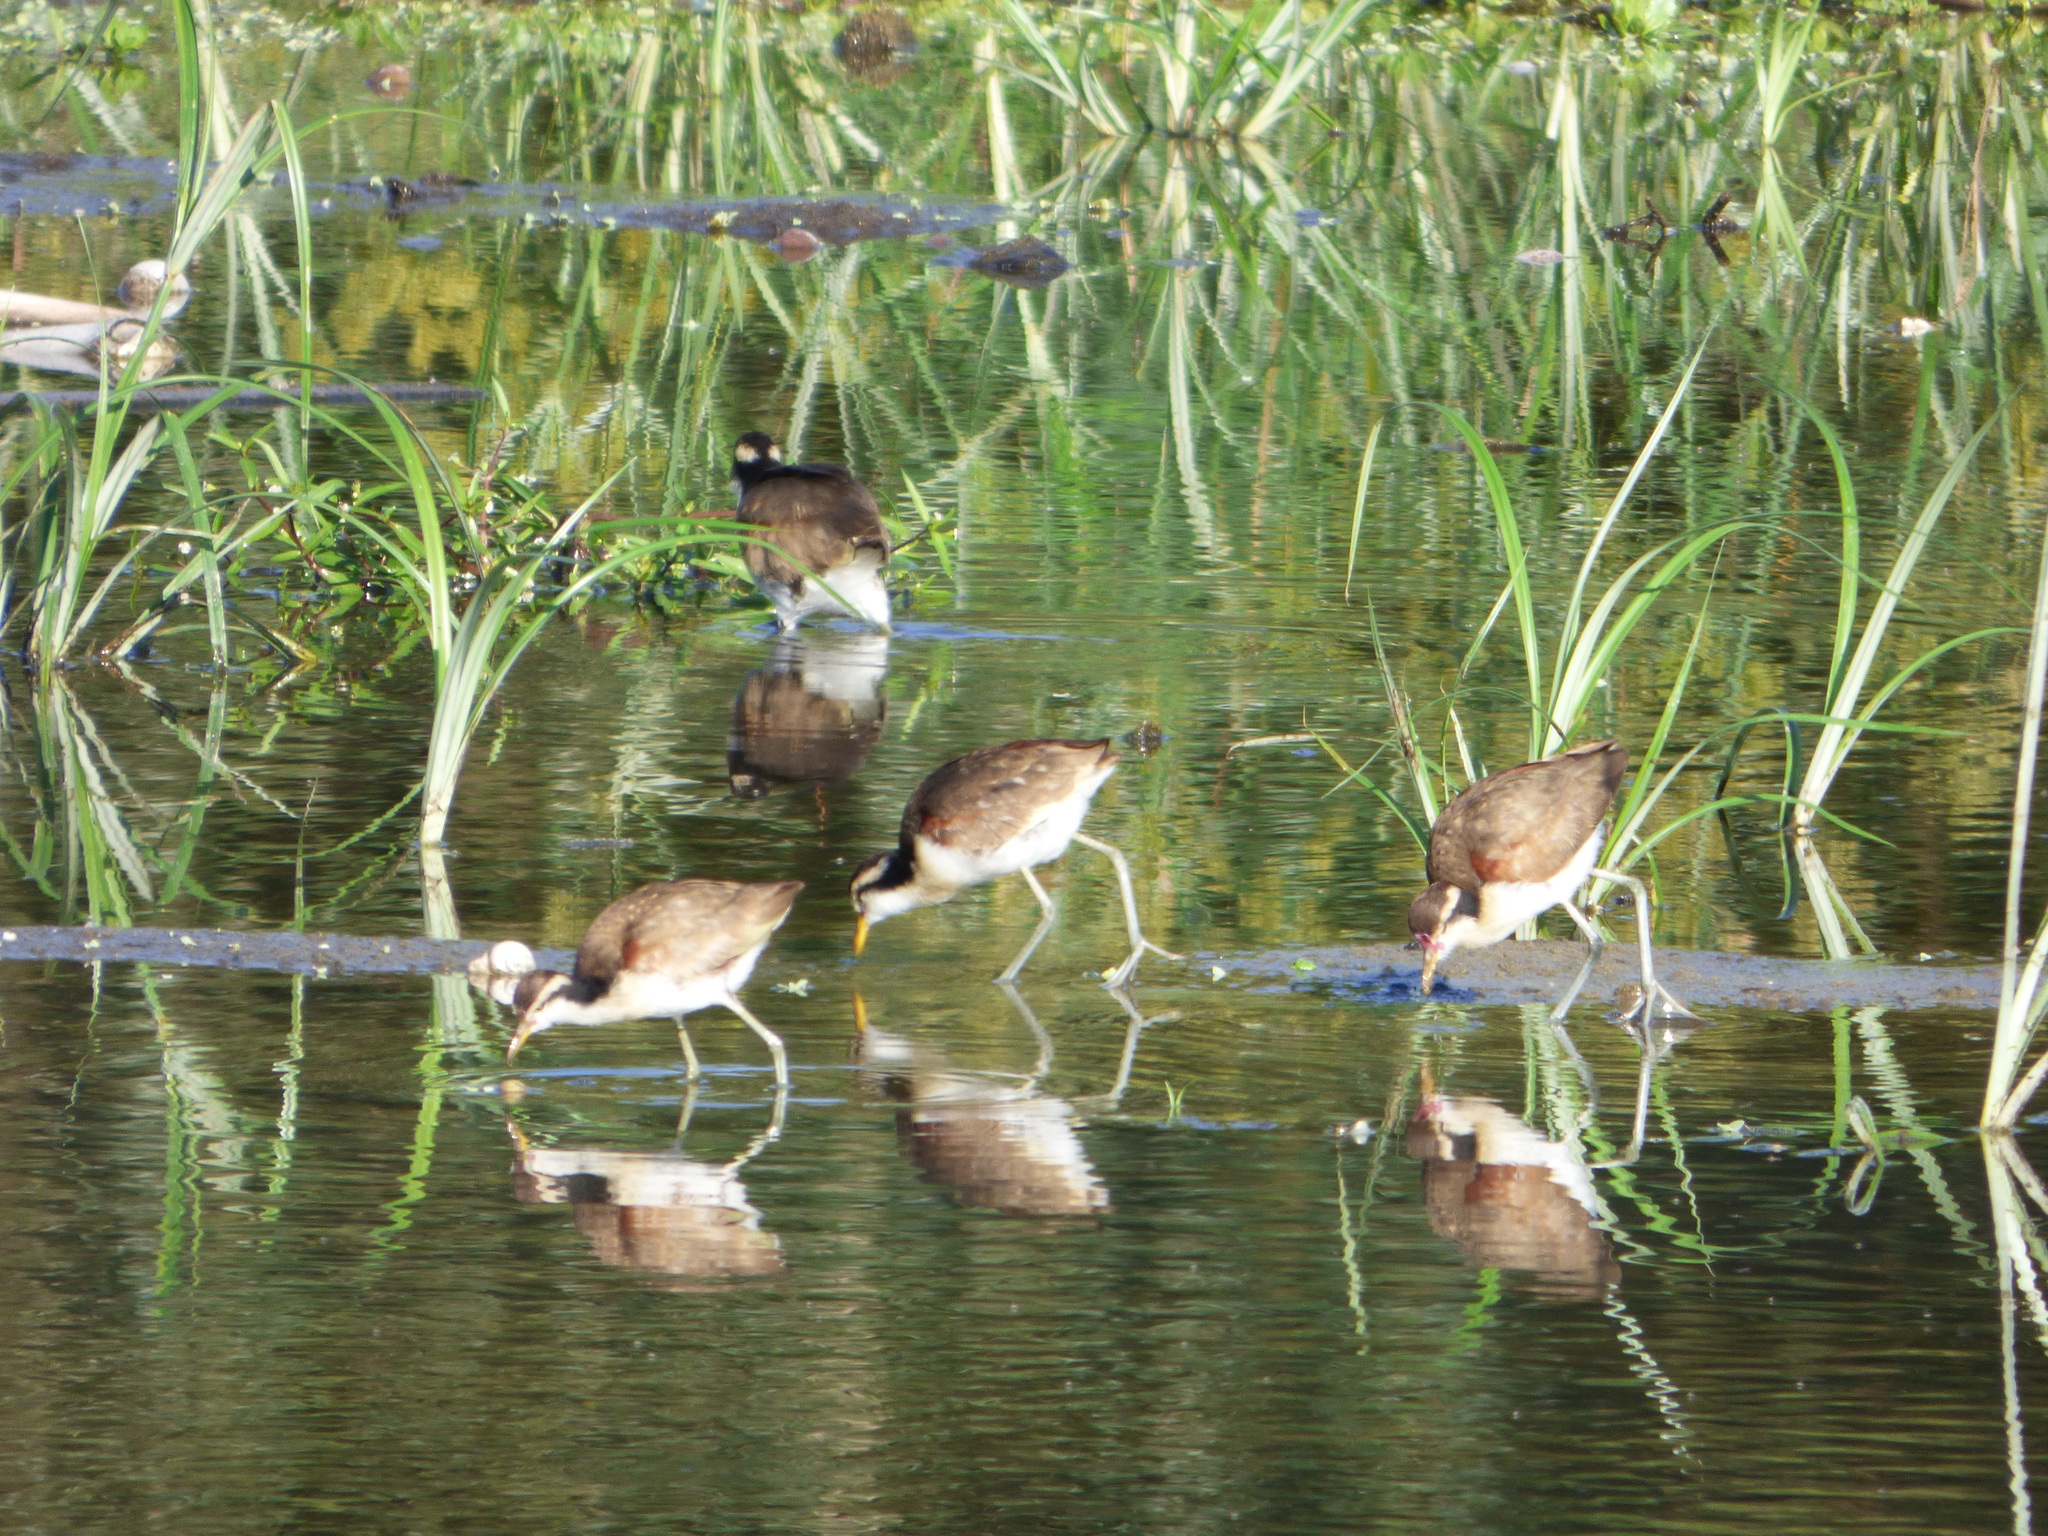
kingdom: Animalia
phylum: Chordata
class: Aves
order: Charadriiformes
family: Jacanidae
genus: Jacana
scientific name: Jacana jacana
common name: Wattled jacana
